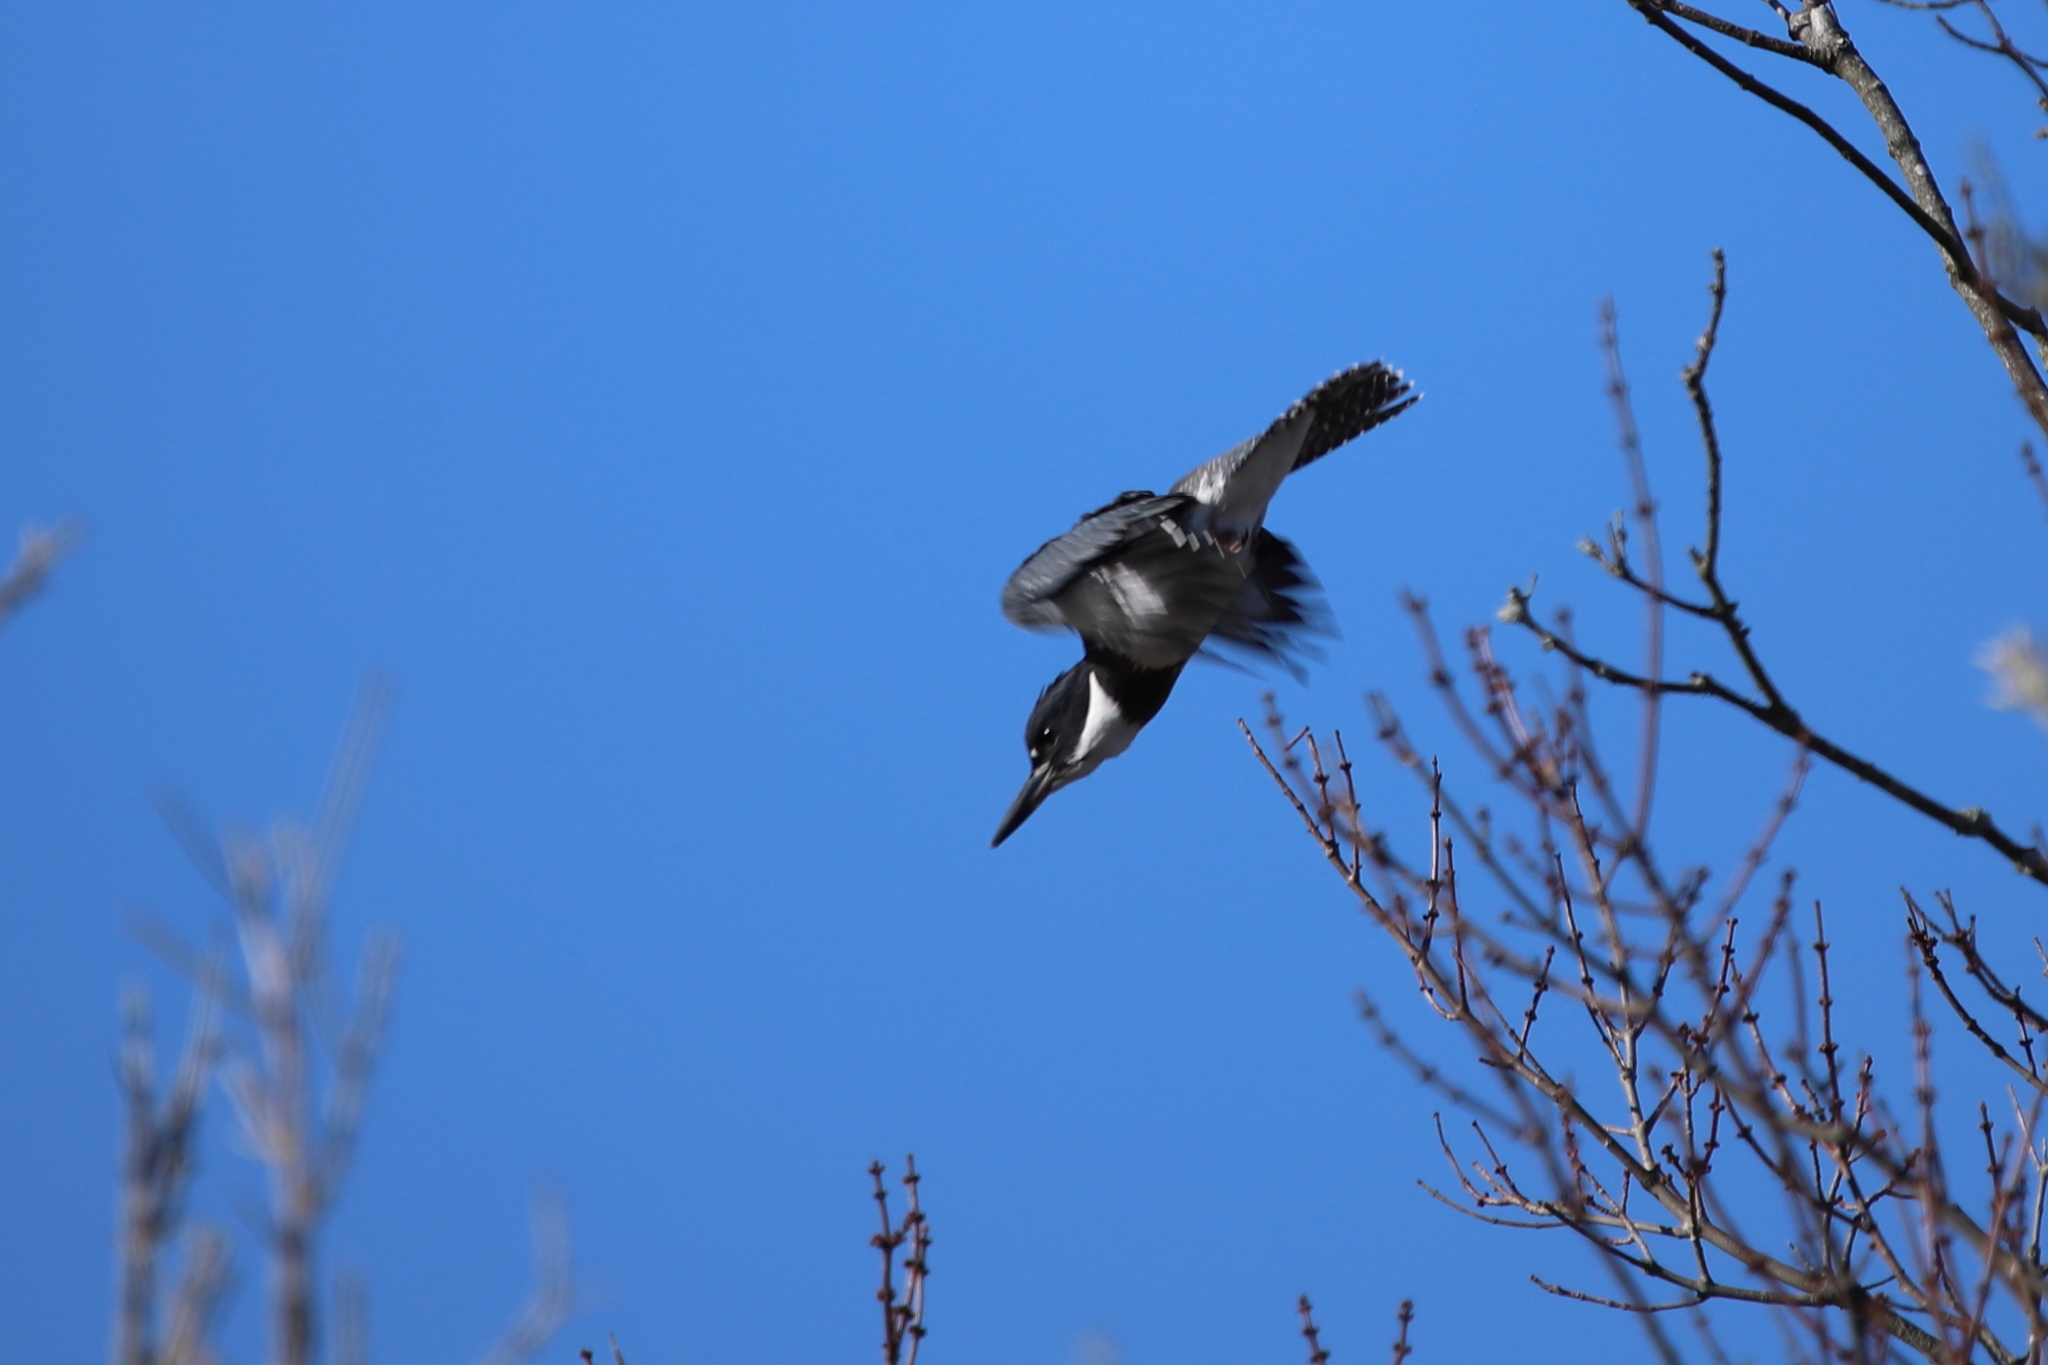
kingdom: Animalia
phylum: Chordata
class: Aves
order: Coraciiformes
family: Alcedinidae
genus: Megaceryle
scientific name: Megaceryle alcyon
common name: Belted kingfisher
